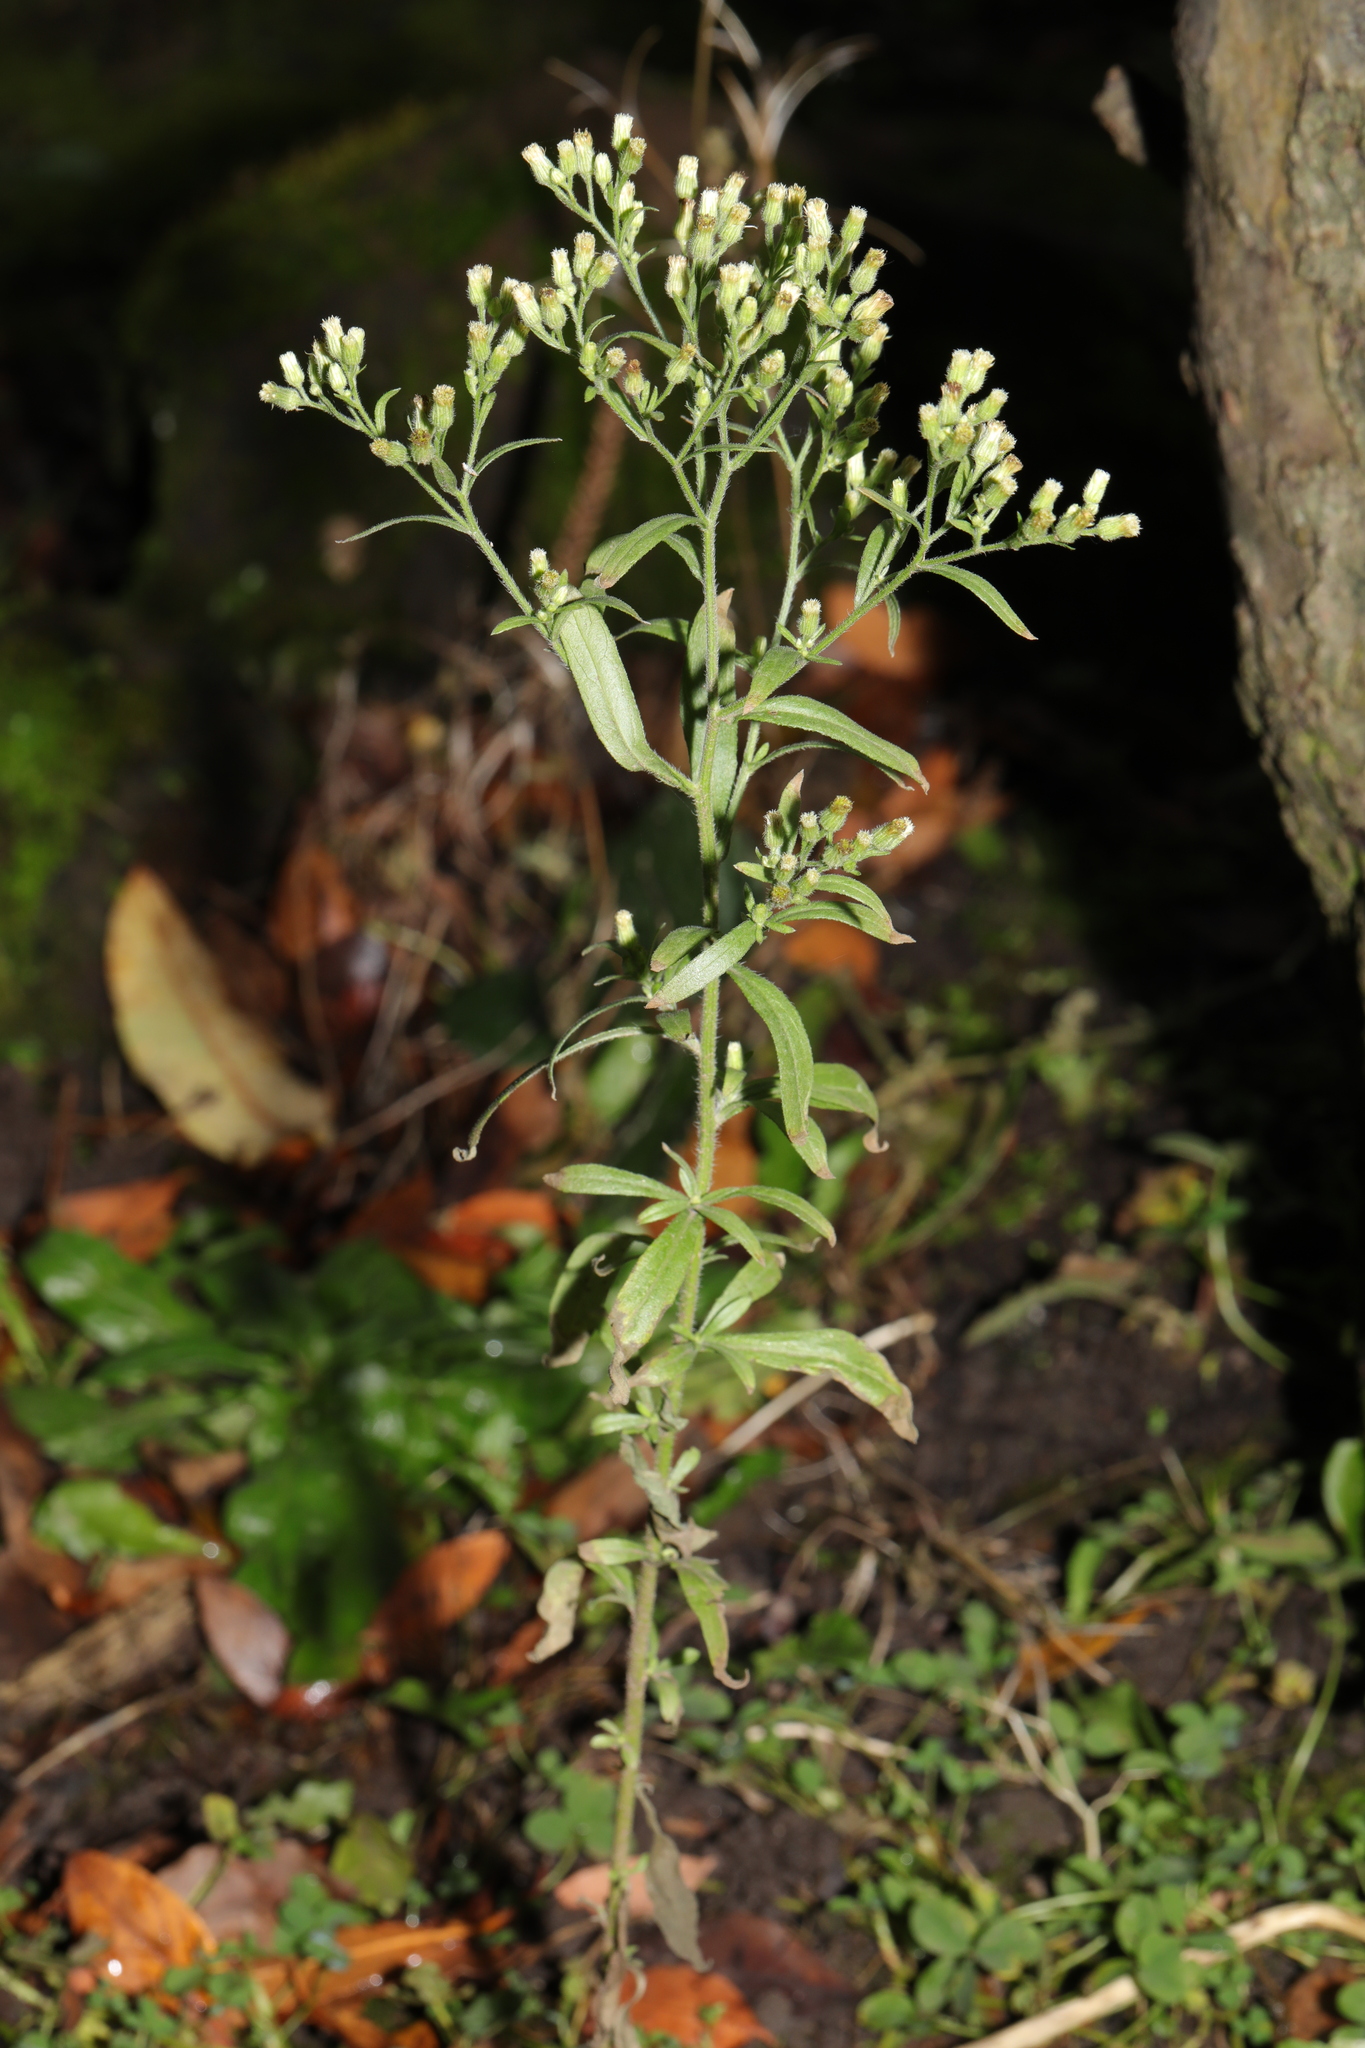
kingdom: Plantae
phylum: Tracheophyta
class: Magnoliopsida
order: Asterales
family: Asteraceae
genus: Erigeron
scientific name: Erigeron sumatrensis
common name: Daisy
